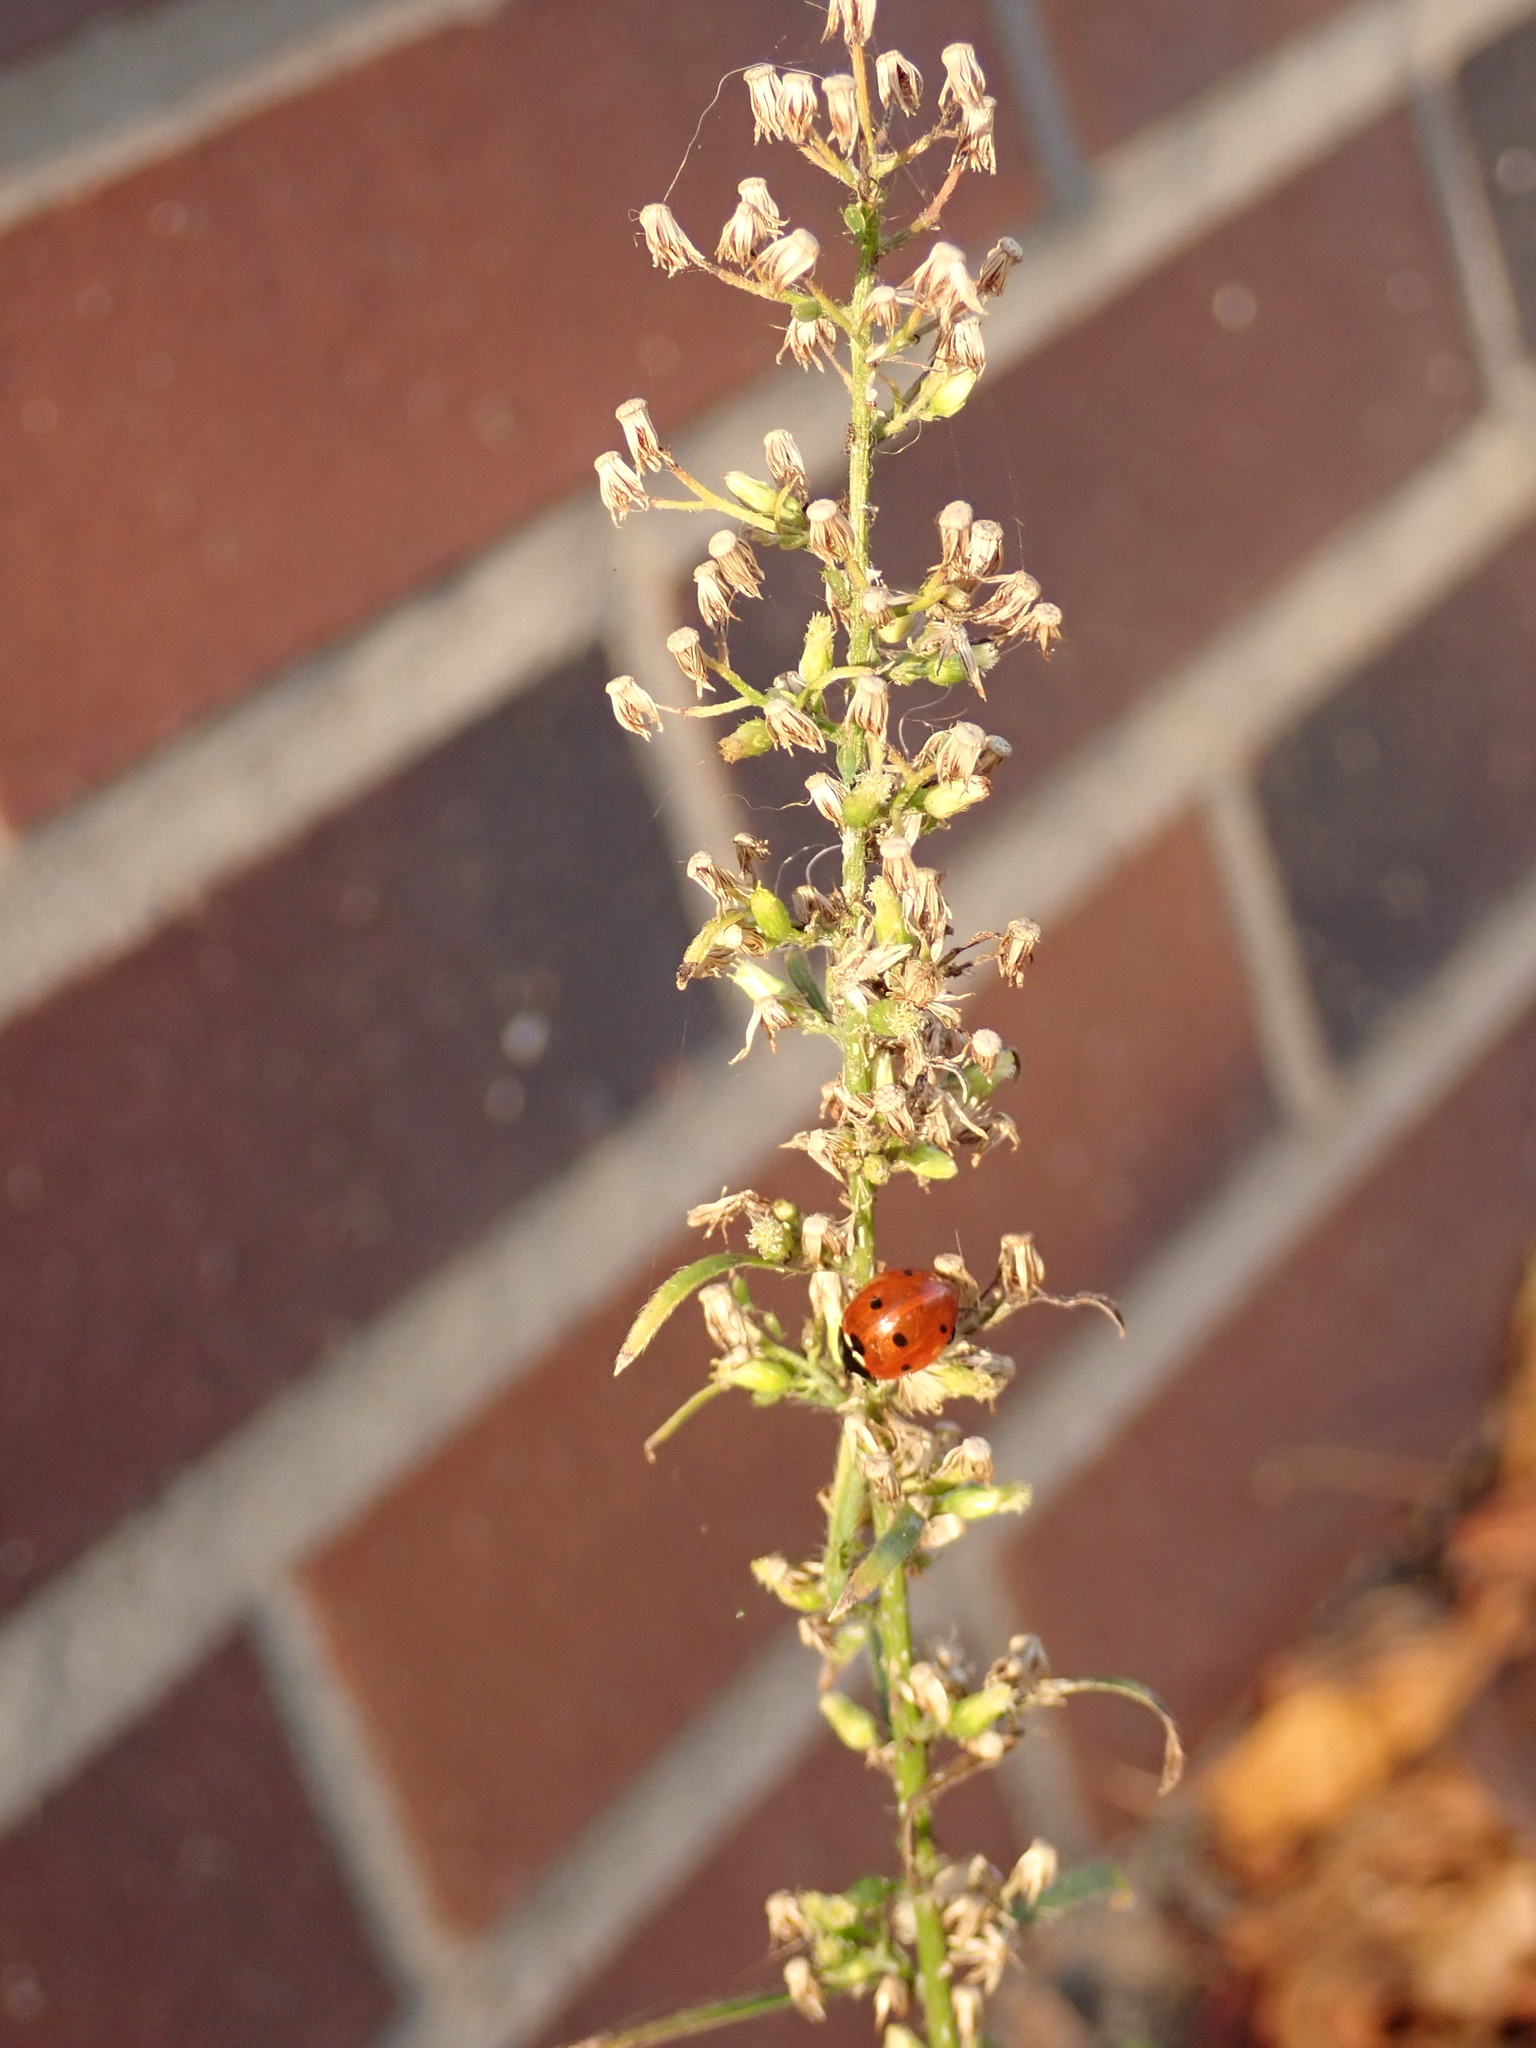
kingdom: Animalia
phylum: Arthropoda
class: Insecta
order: Coleoptera
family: Coccinellidae
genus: Coccinella
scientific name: Coccinella septempunctata
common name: Sevenspotted lady beetle
